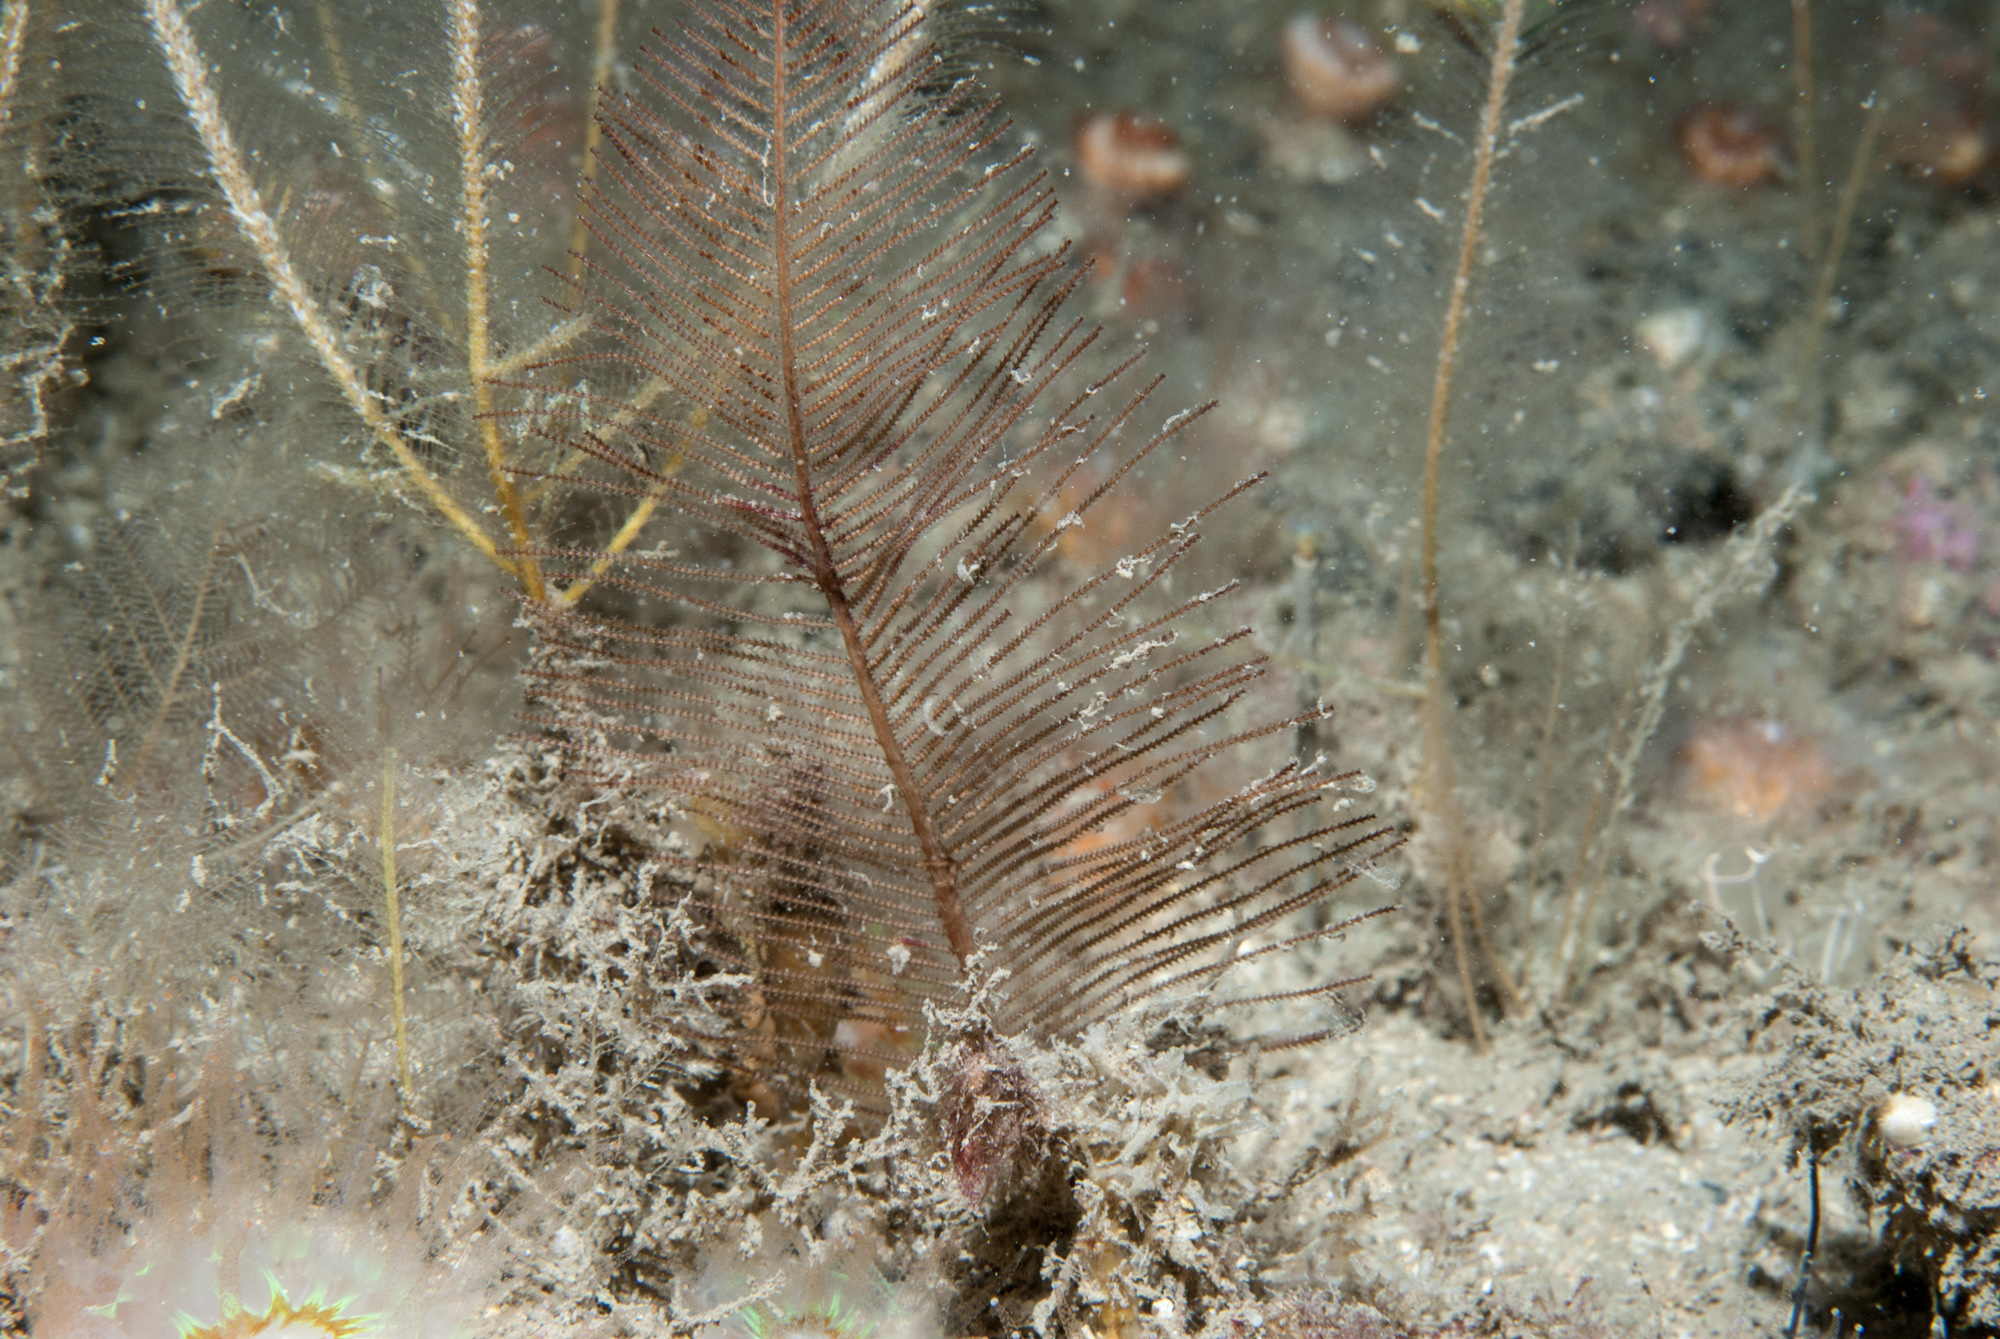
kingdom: Animalia
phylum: Cnidaria
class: Hydrozoa
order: Leptothecata
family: Sertulariidae
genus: Diphasia
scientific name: Diphasia alata
